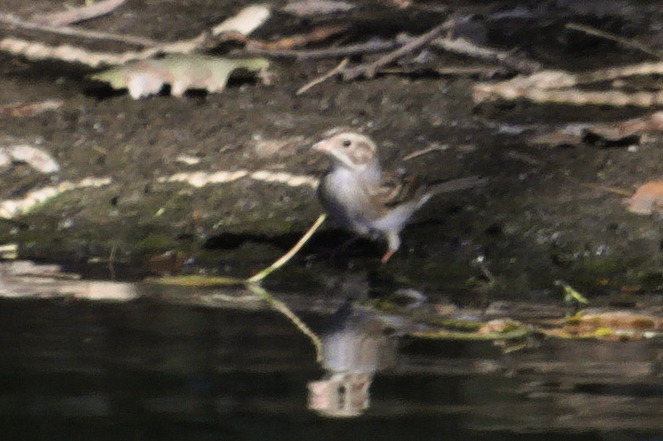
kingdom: Animalia
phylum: Chordata
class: Aves
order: Passeriformes
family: Passerellidae
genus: Spizella
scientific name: Spizella pallida
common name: Clay-colored sparrow
